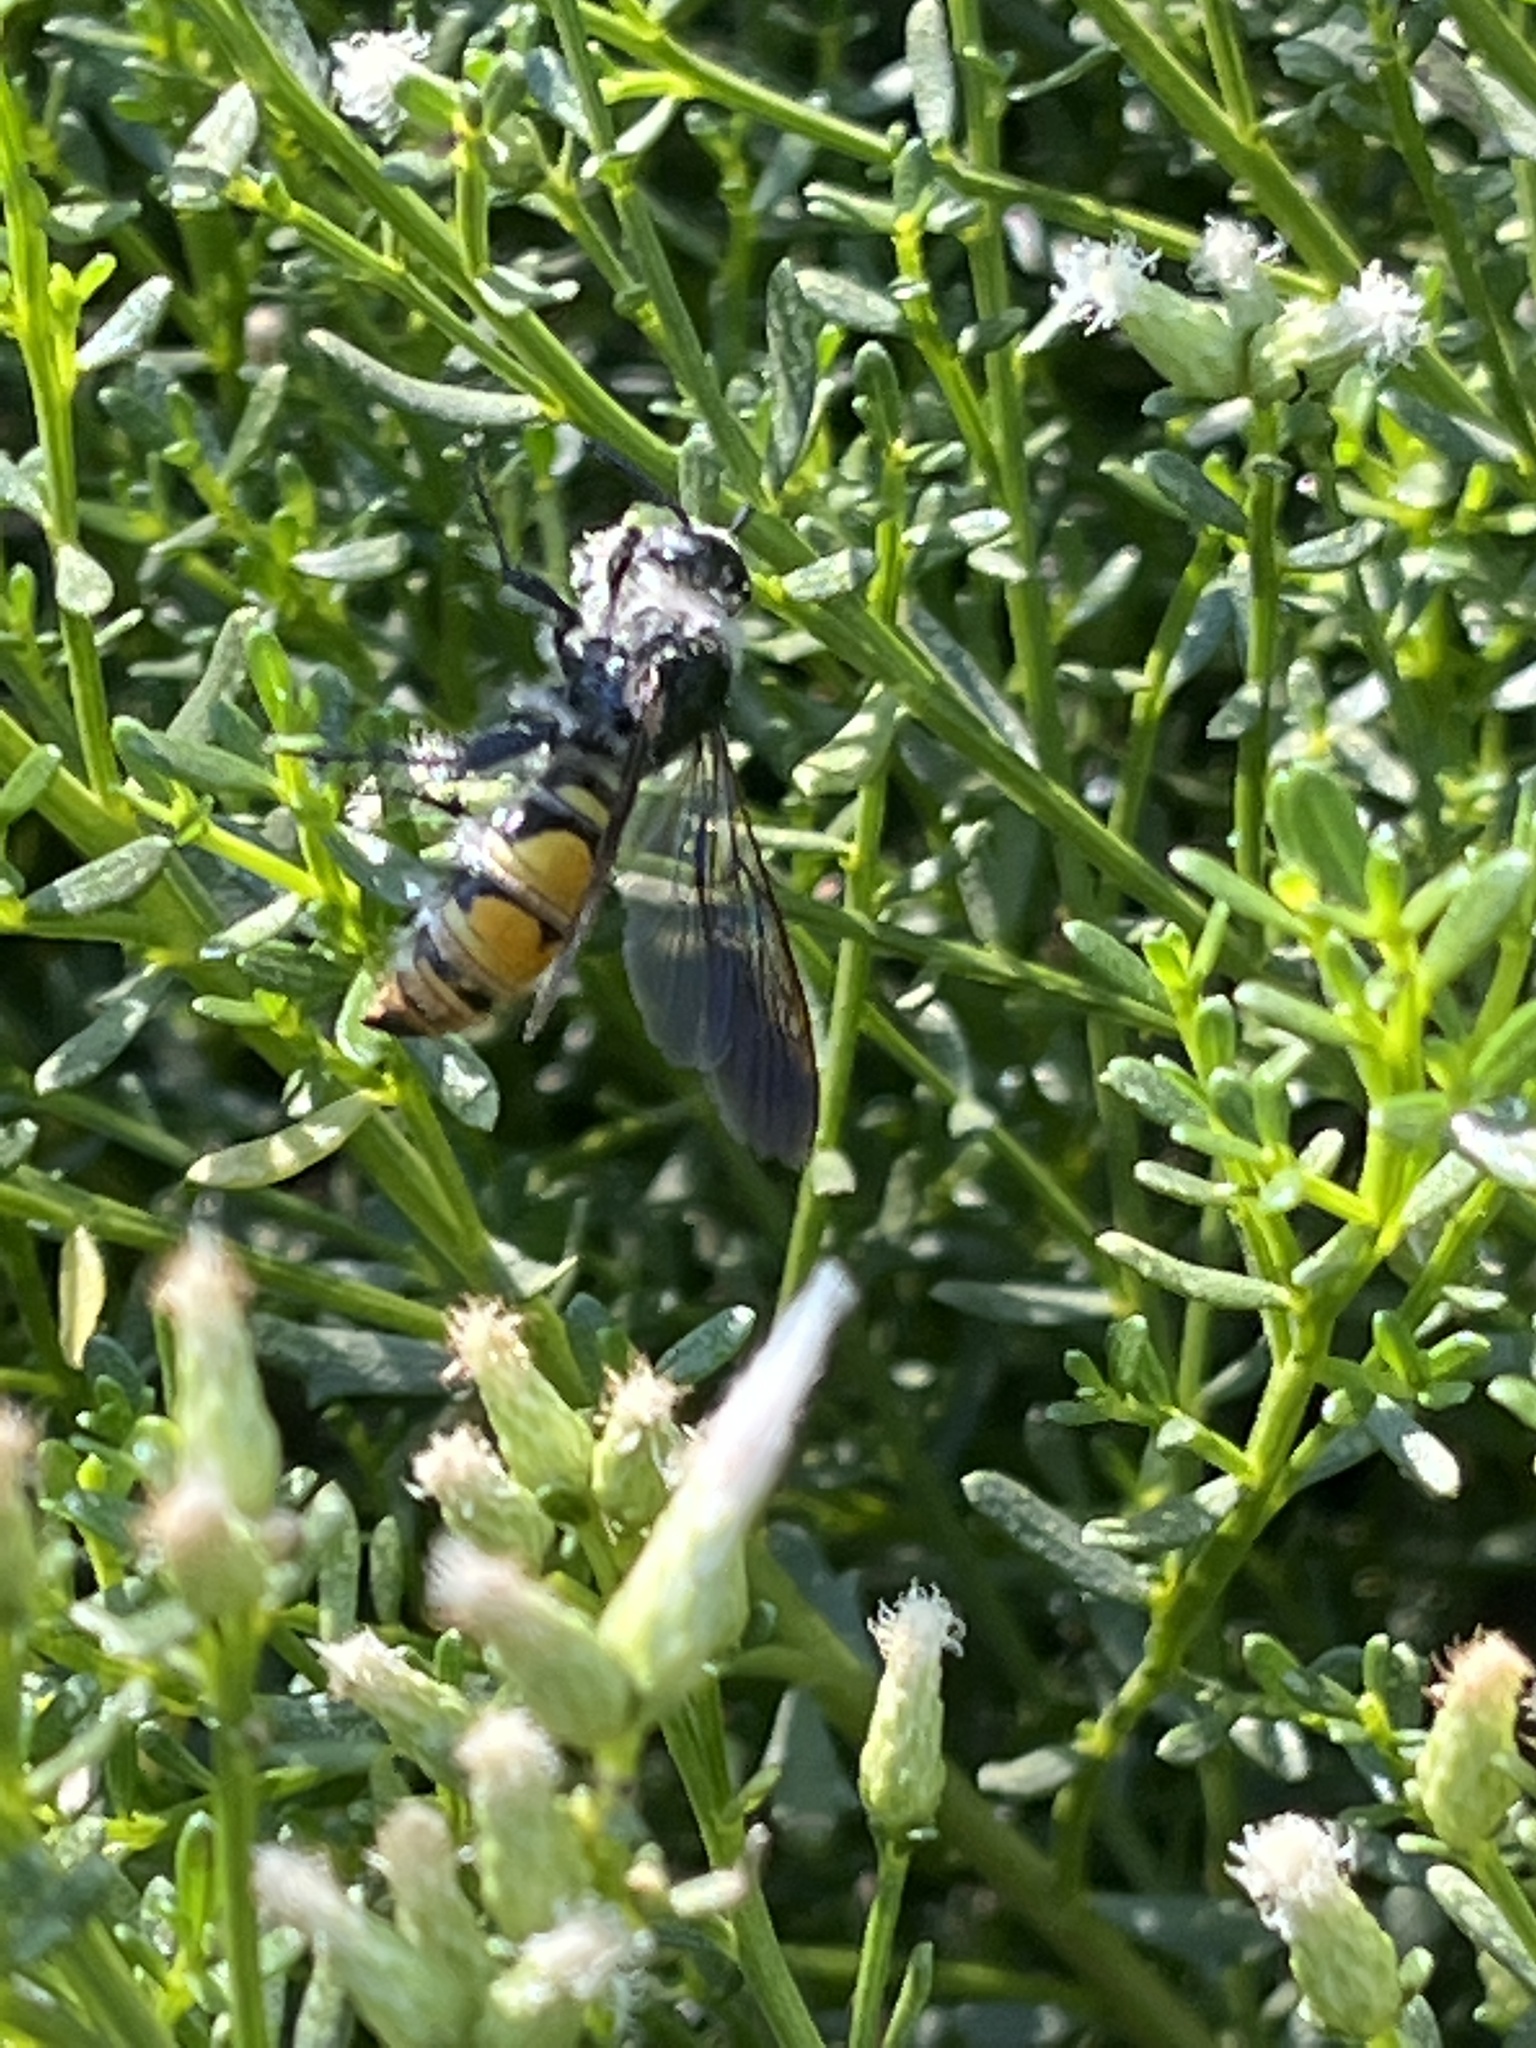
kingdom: Animalia
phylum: Arthropoda
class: Insecta
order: Hymenoptera
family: Scoliidae
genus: Dielis
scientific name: Dielis tolteca
